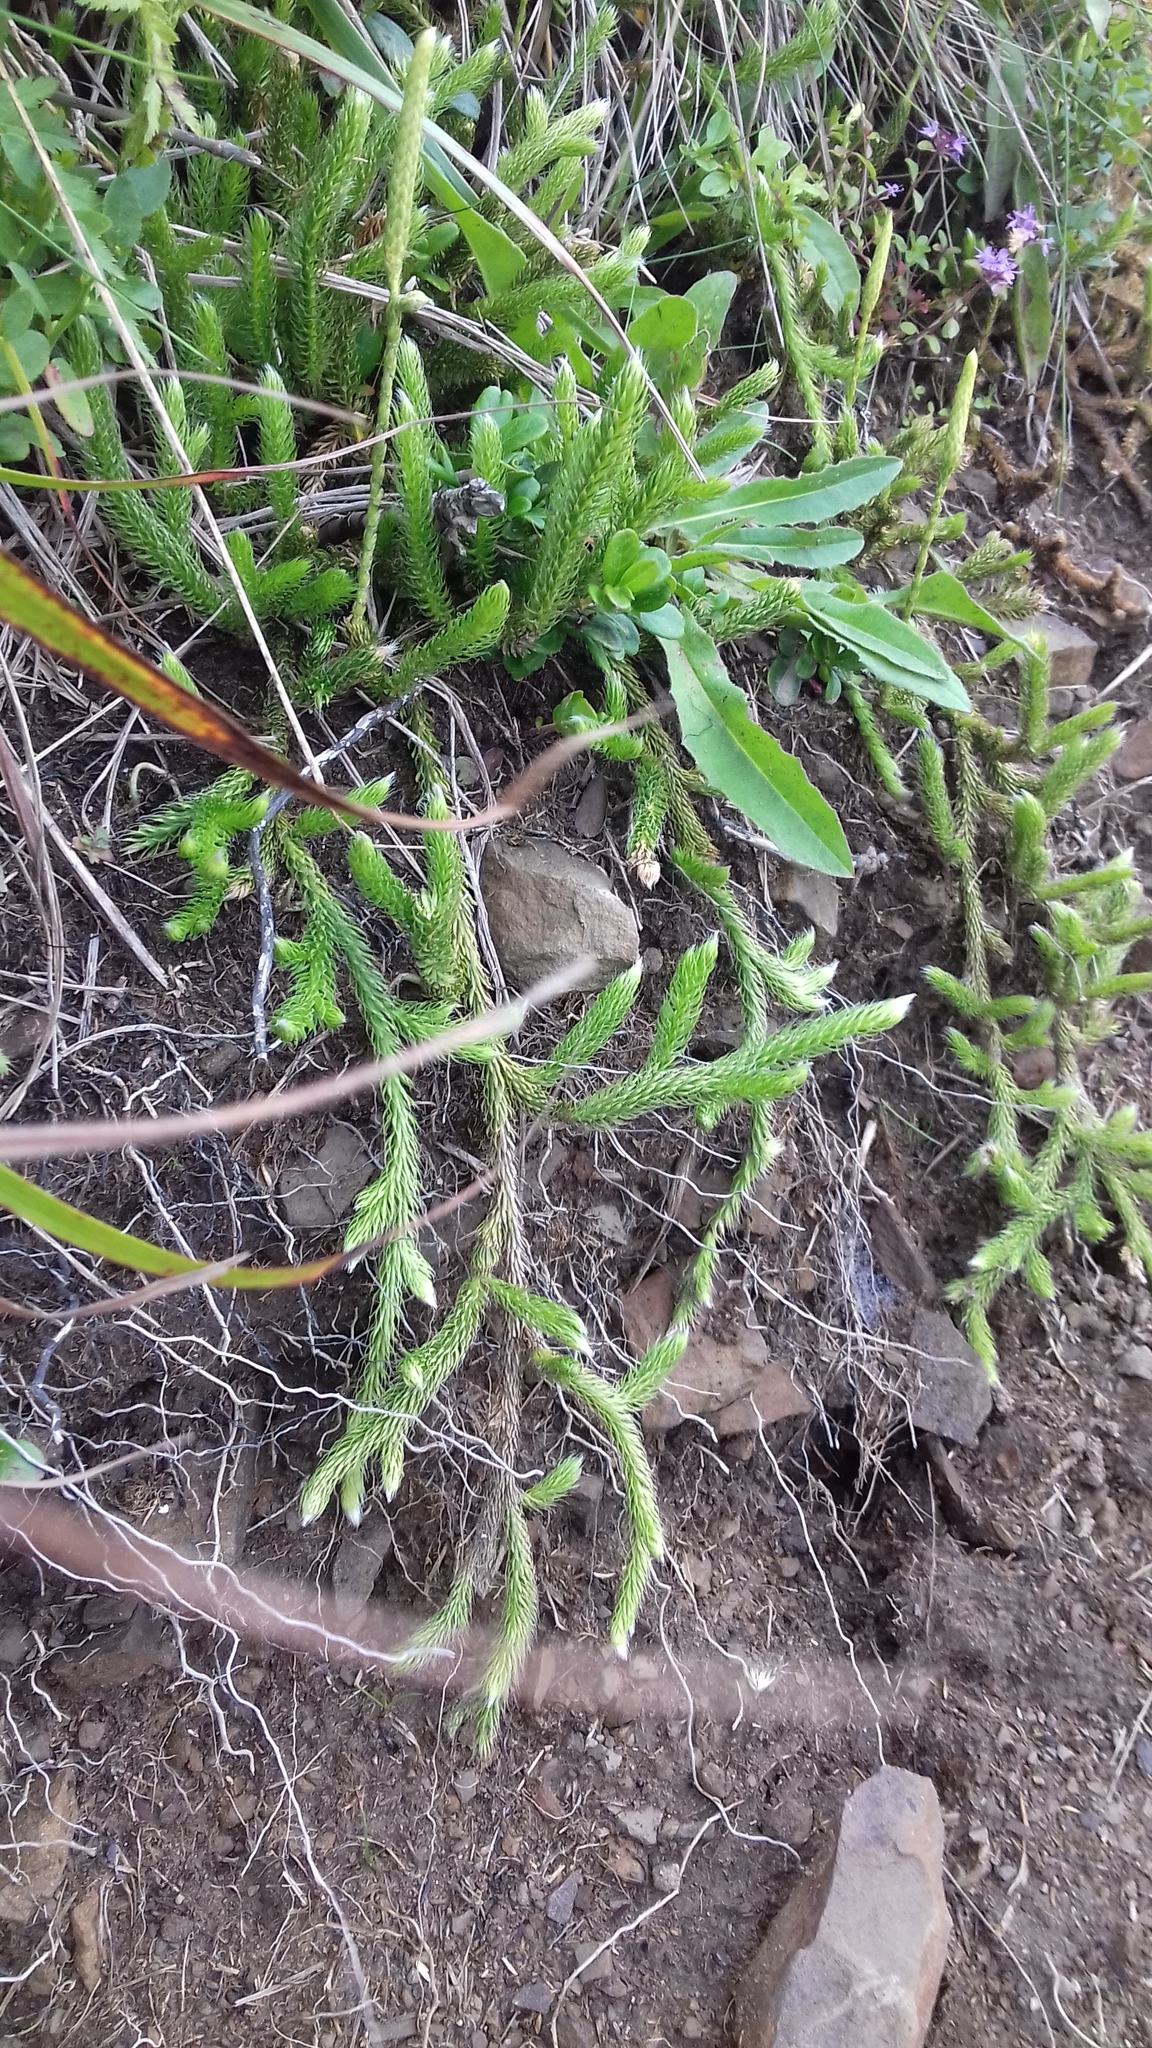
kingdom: Plantae
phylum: Tracheophyta
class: Lycopodiopsida
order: Lycopodiales
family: Lycopodiaceae
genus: Lycopodium
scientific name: Lycopodium clavatum
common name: Stag's-horn clubmoss
